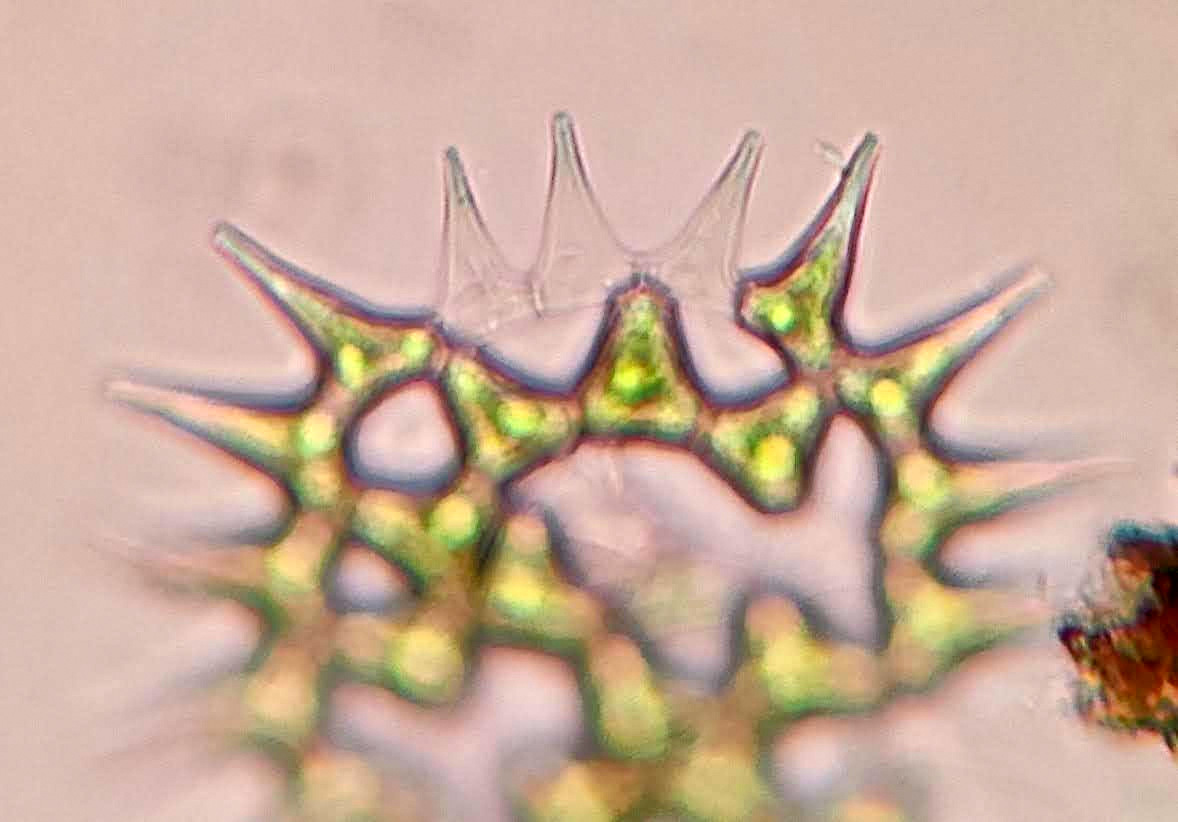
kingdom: Plantae
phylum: Chlorophyta
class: Chlorophyceae
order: Sphaeropleales
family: Hydrodictyaceae
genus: Monactinus
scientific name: Monactinus simplex
